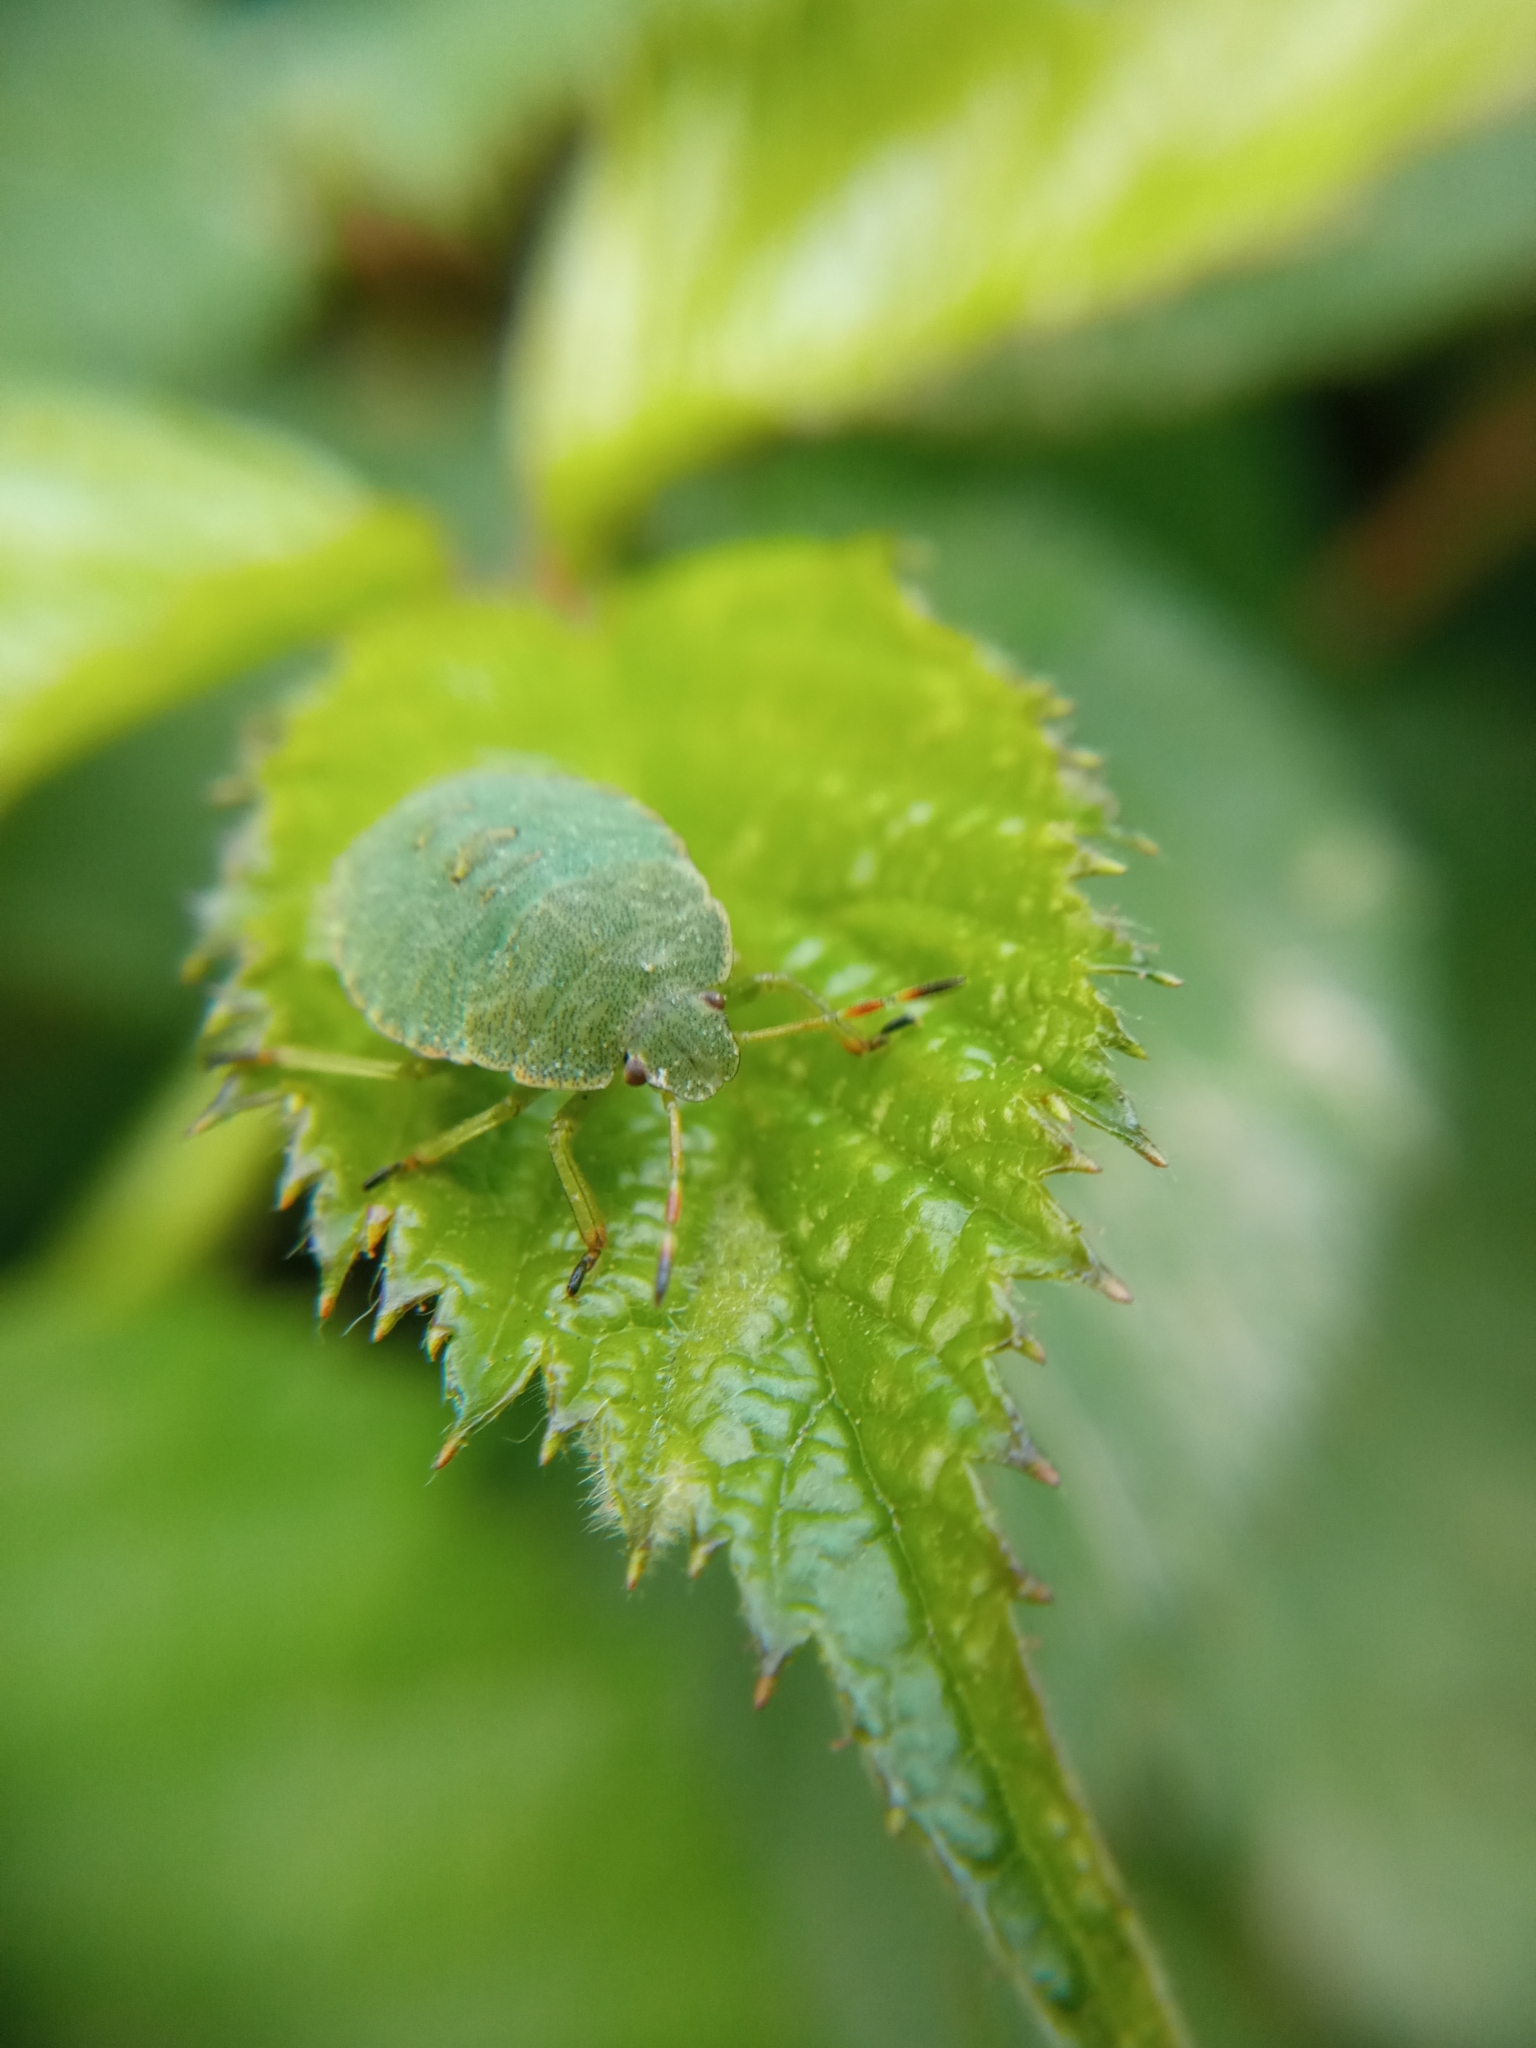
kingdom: Animalia
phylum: Arthropoda
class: Insecta
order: Hemiptera
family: Pentatomidae
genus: Palomena
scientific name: Palomena prasina
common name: Green shieldbug
